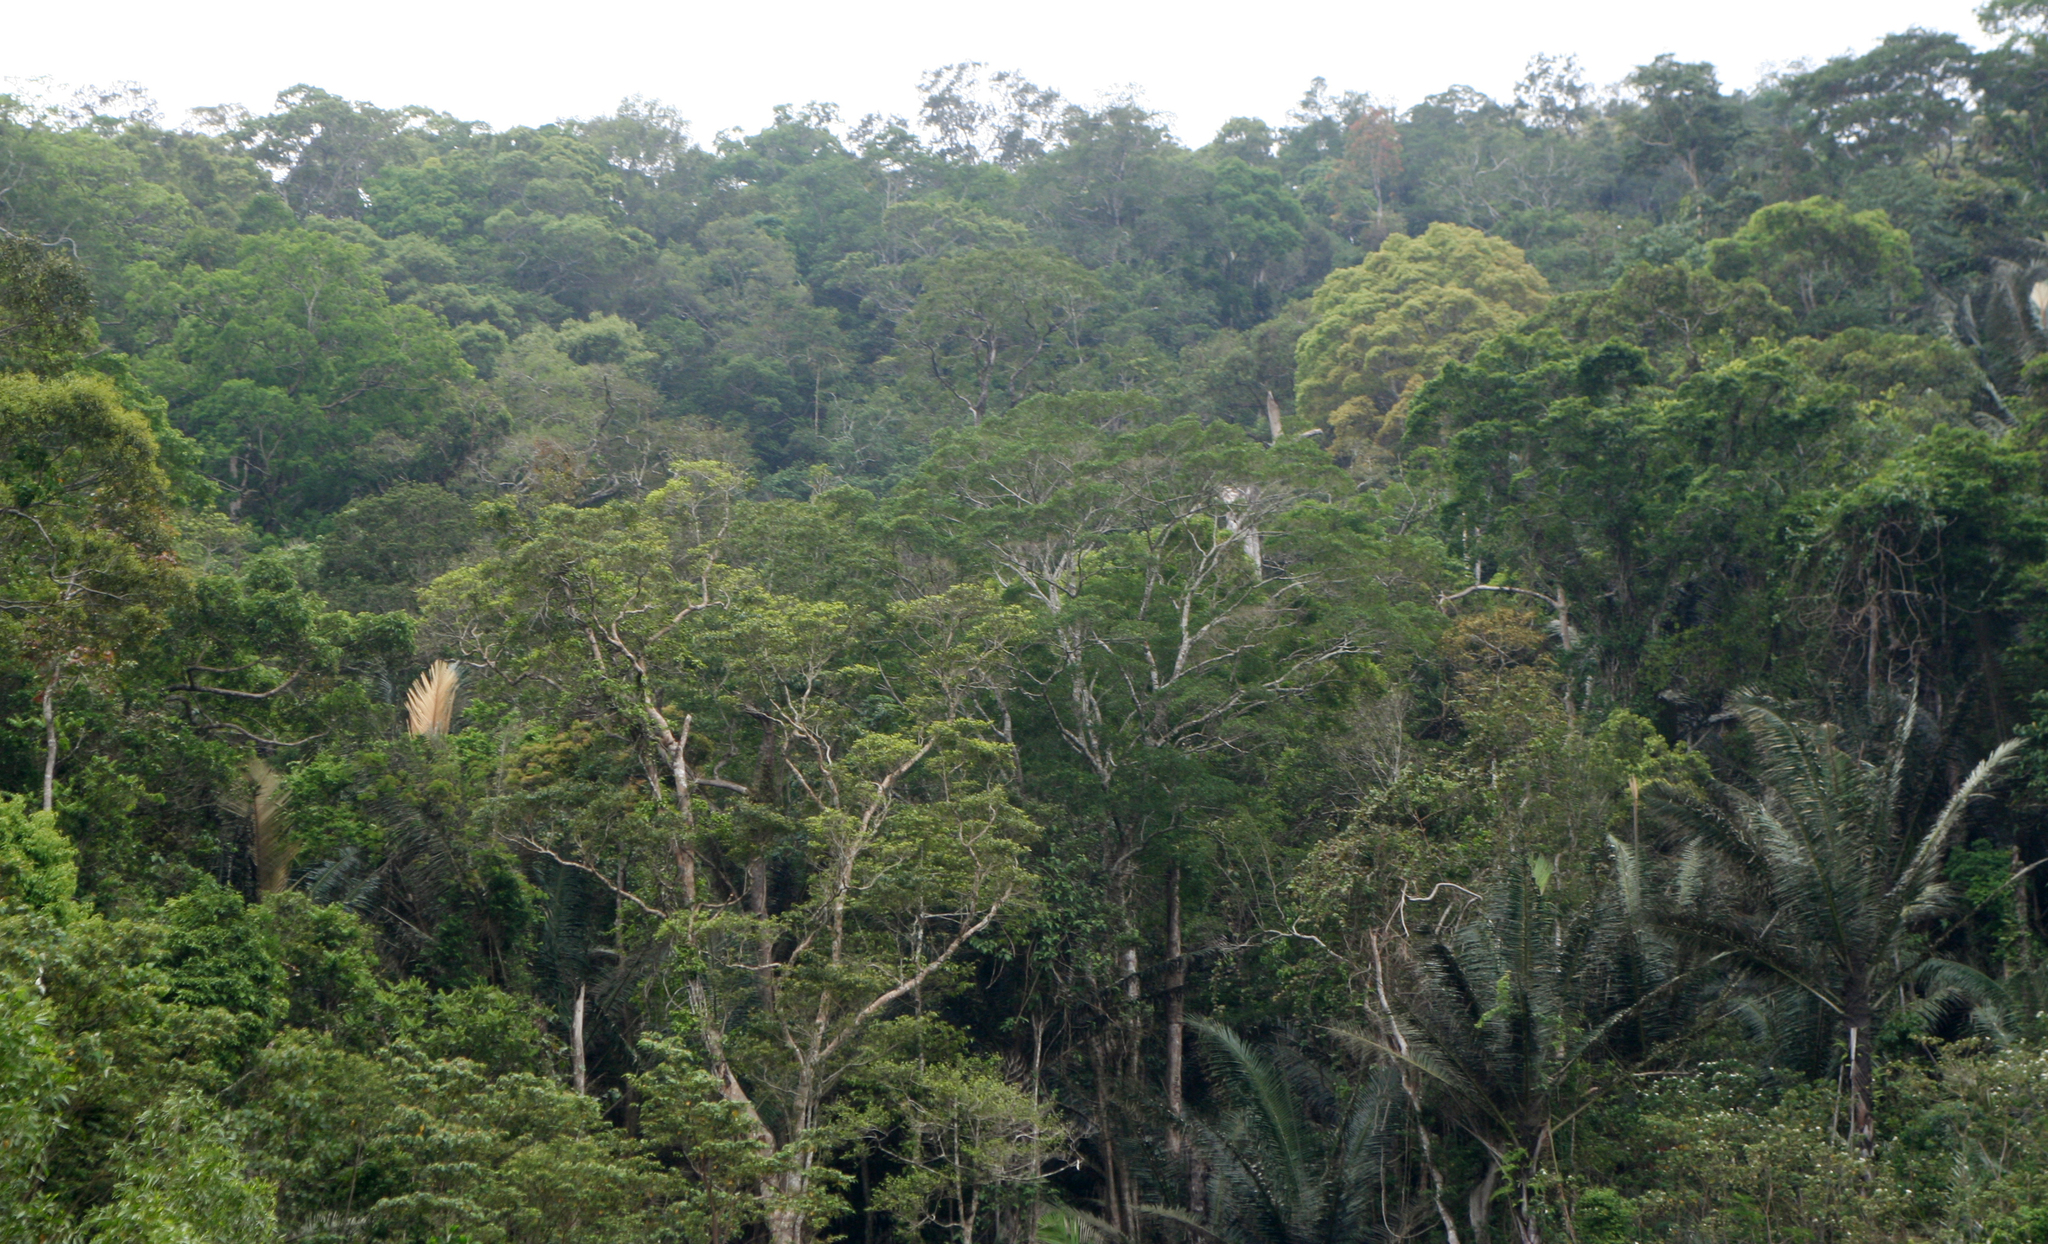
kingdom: Plantae
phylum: Tracheophyta
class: Liliopsida
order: Arecales
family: Arecaceae
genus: Arenga
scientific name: Arenga westerhoutii
